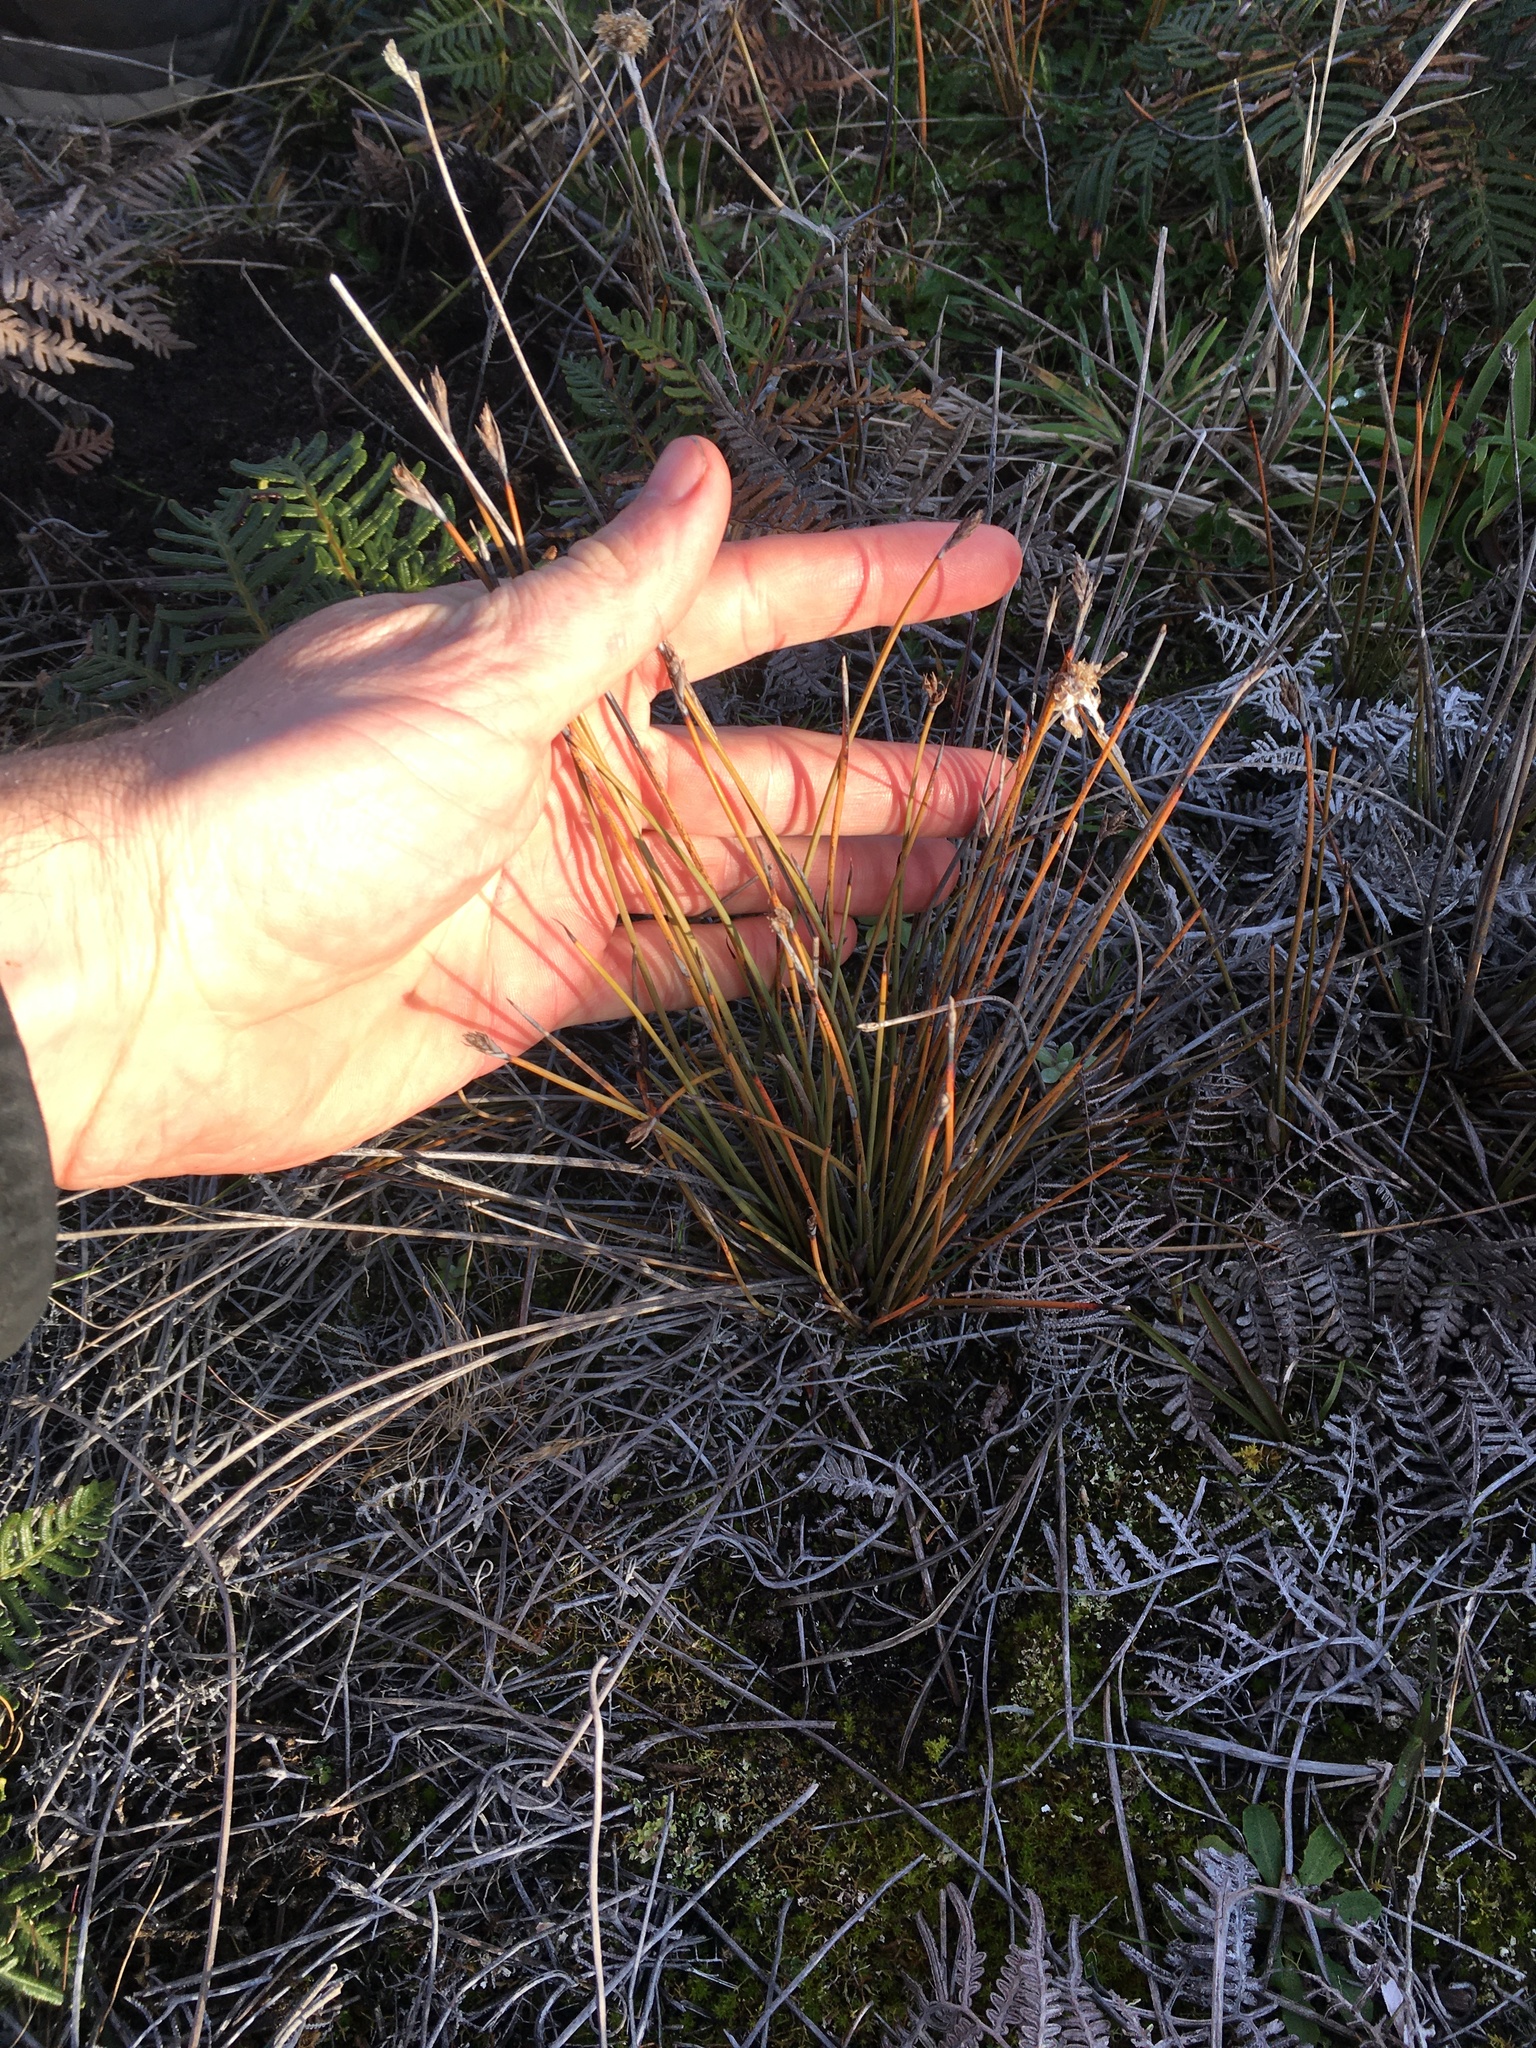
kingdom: Plantae
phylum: Tracheophyta
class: Liliopsida
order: Poales
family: Cyperaceae
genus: Lepidosperma
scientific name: Lepidosperma australe
